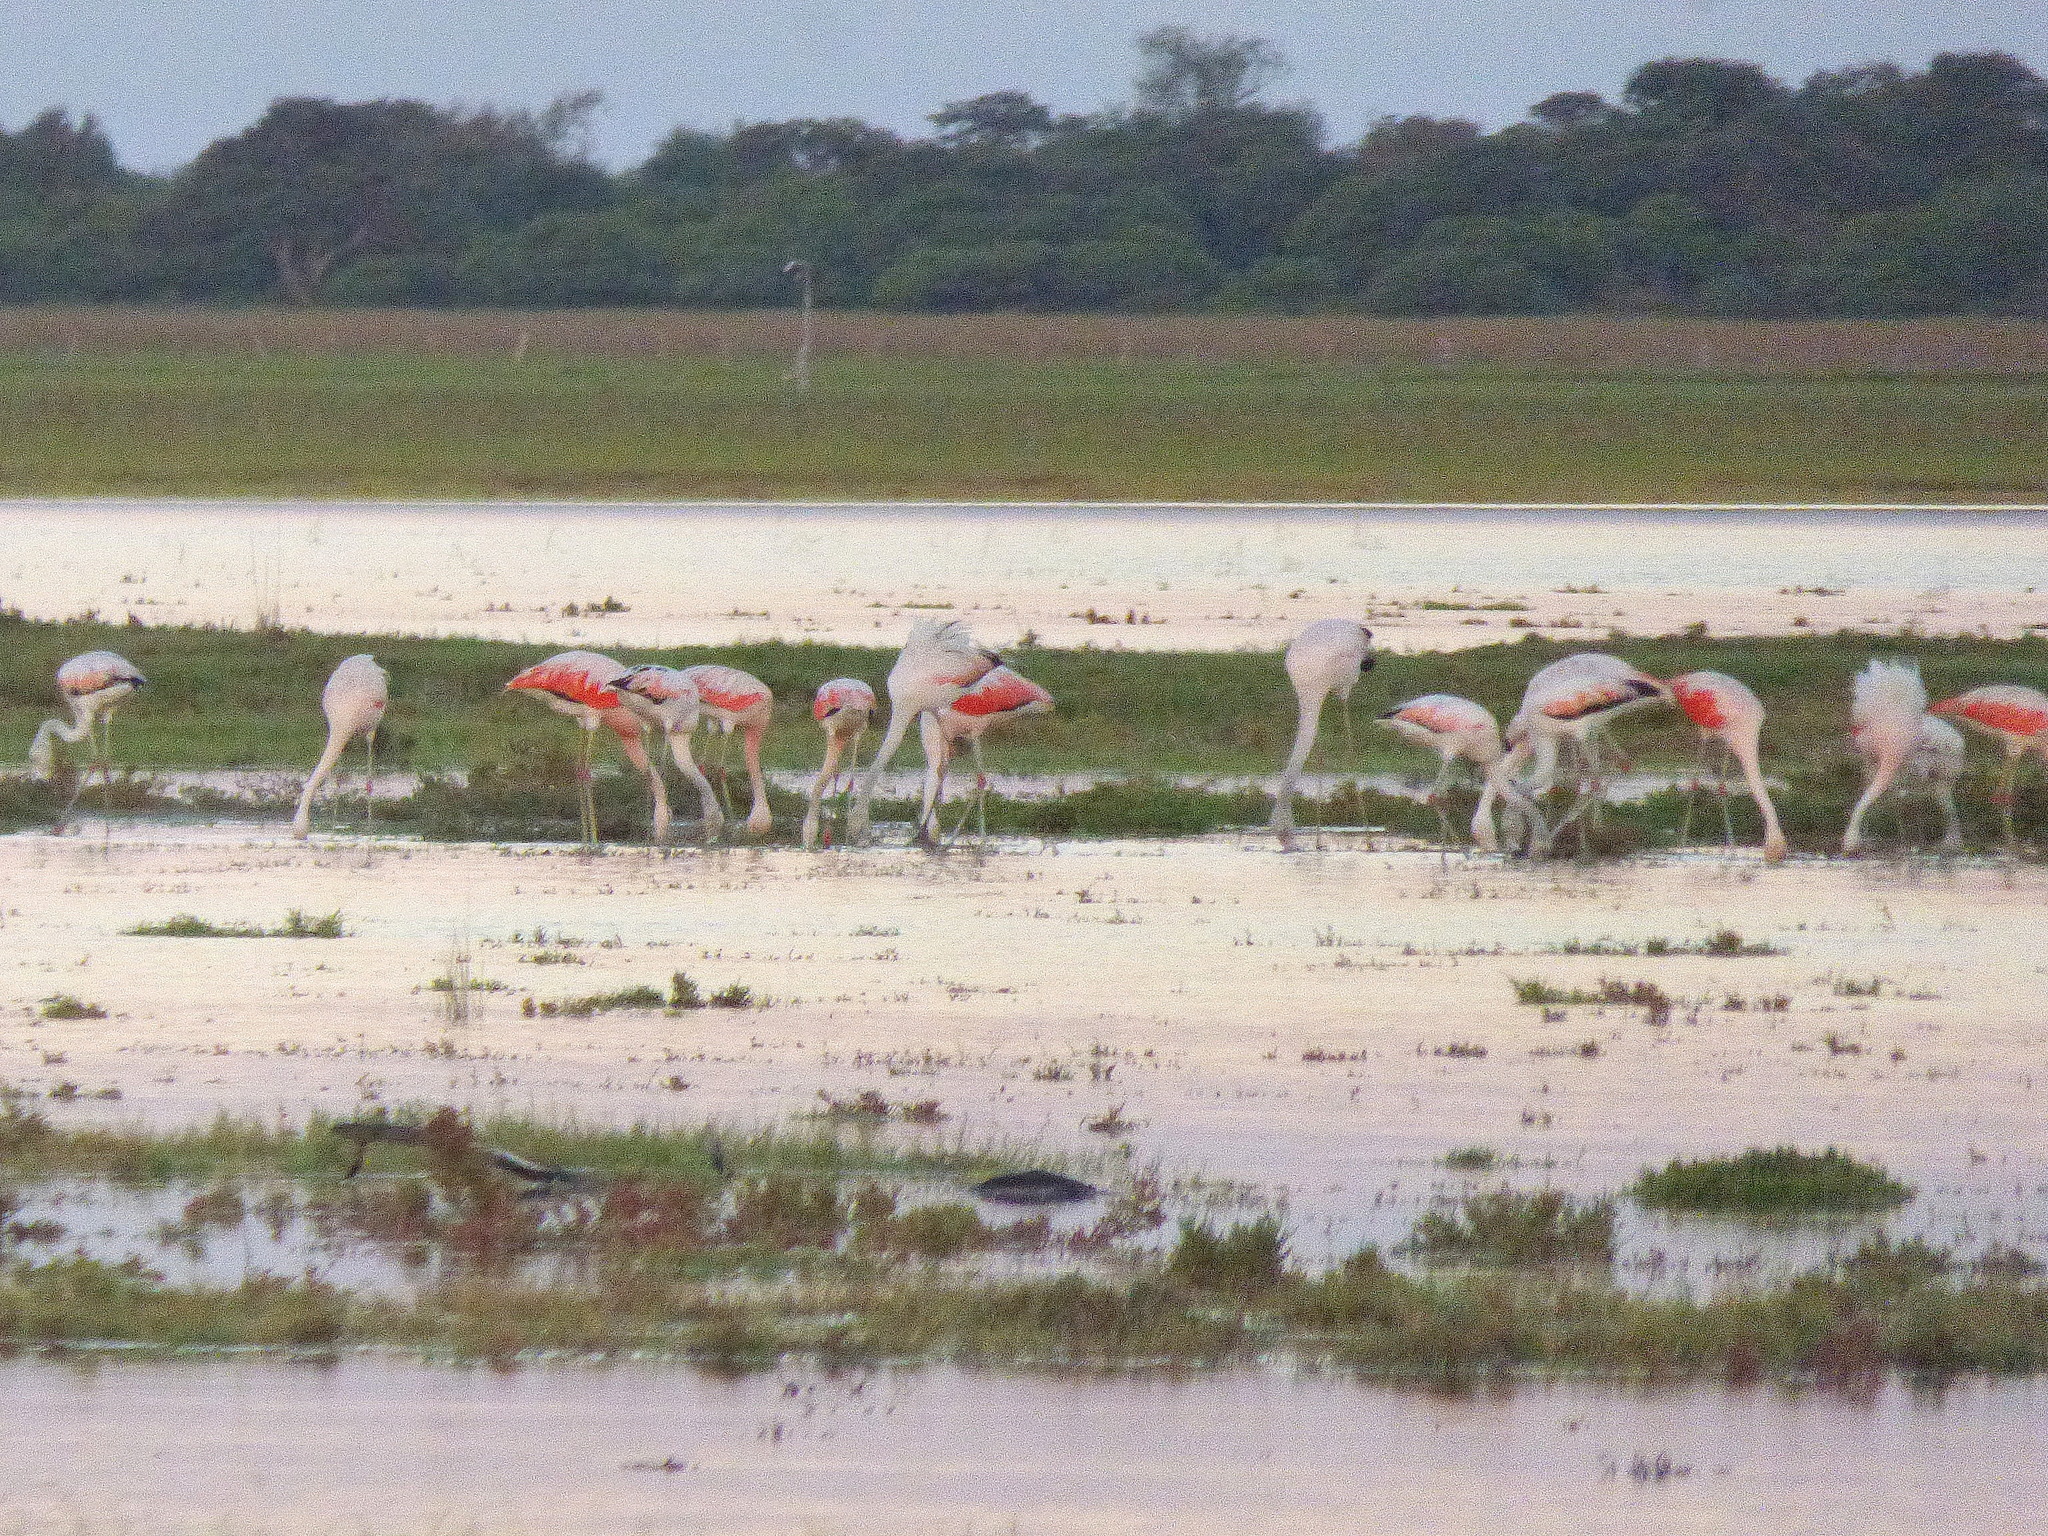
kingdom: Animalia
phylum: Chordata
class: Aves
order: Phoenicopteriformes
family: Phoenicopteridae
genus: Phoenicopterus
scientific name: Phoenicopterus chilensis
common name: Chilean flamingo
